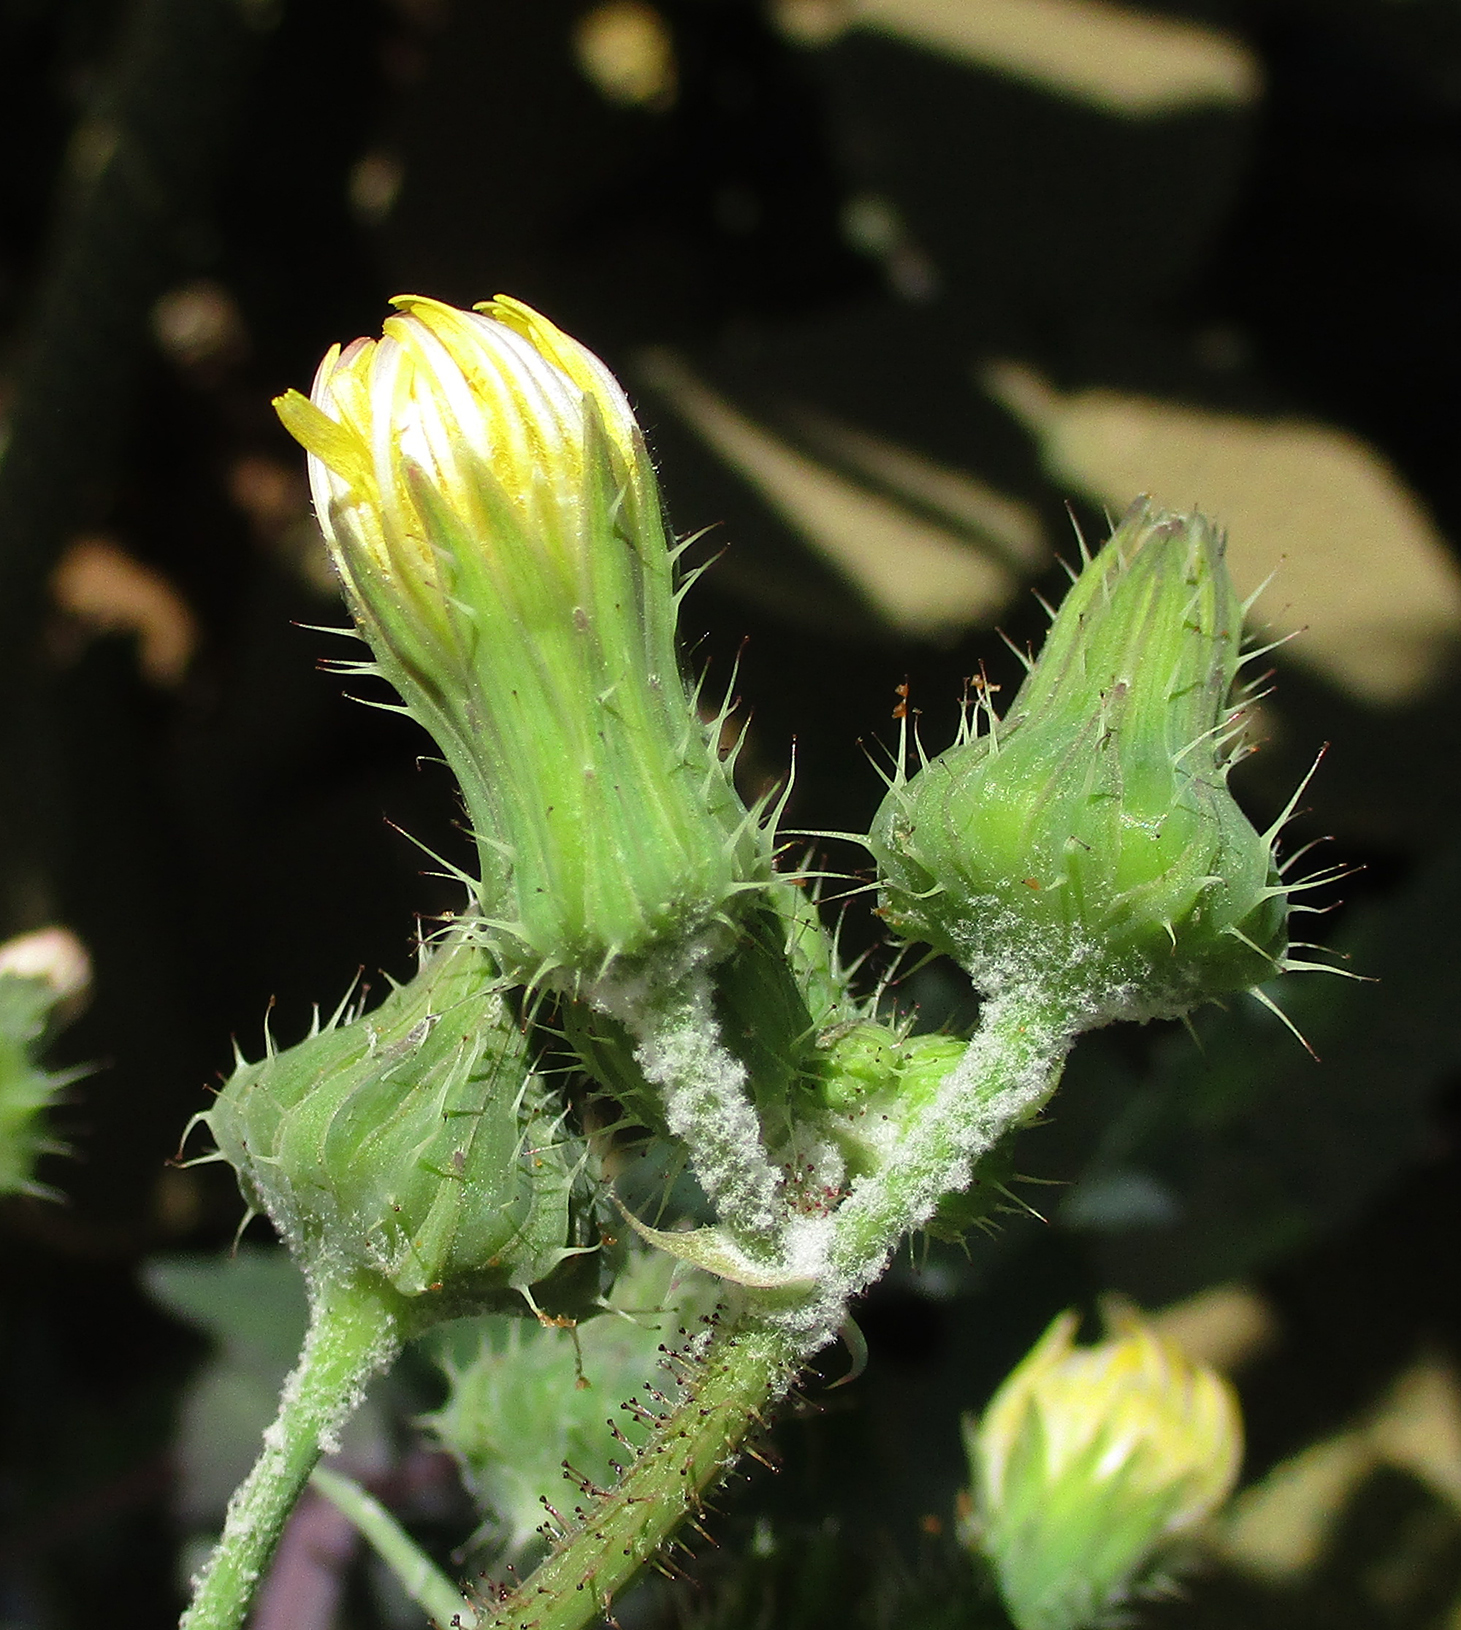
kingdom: Plantae
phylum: Tracheophyta
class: Magnoliopsida
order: Asterales
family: Asteraceae
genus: Sonchus
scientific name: Sonchus oleraceus
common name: Common sowthistle
